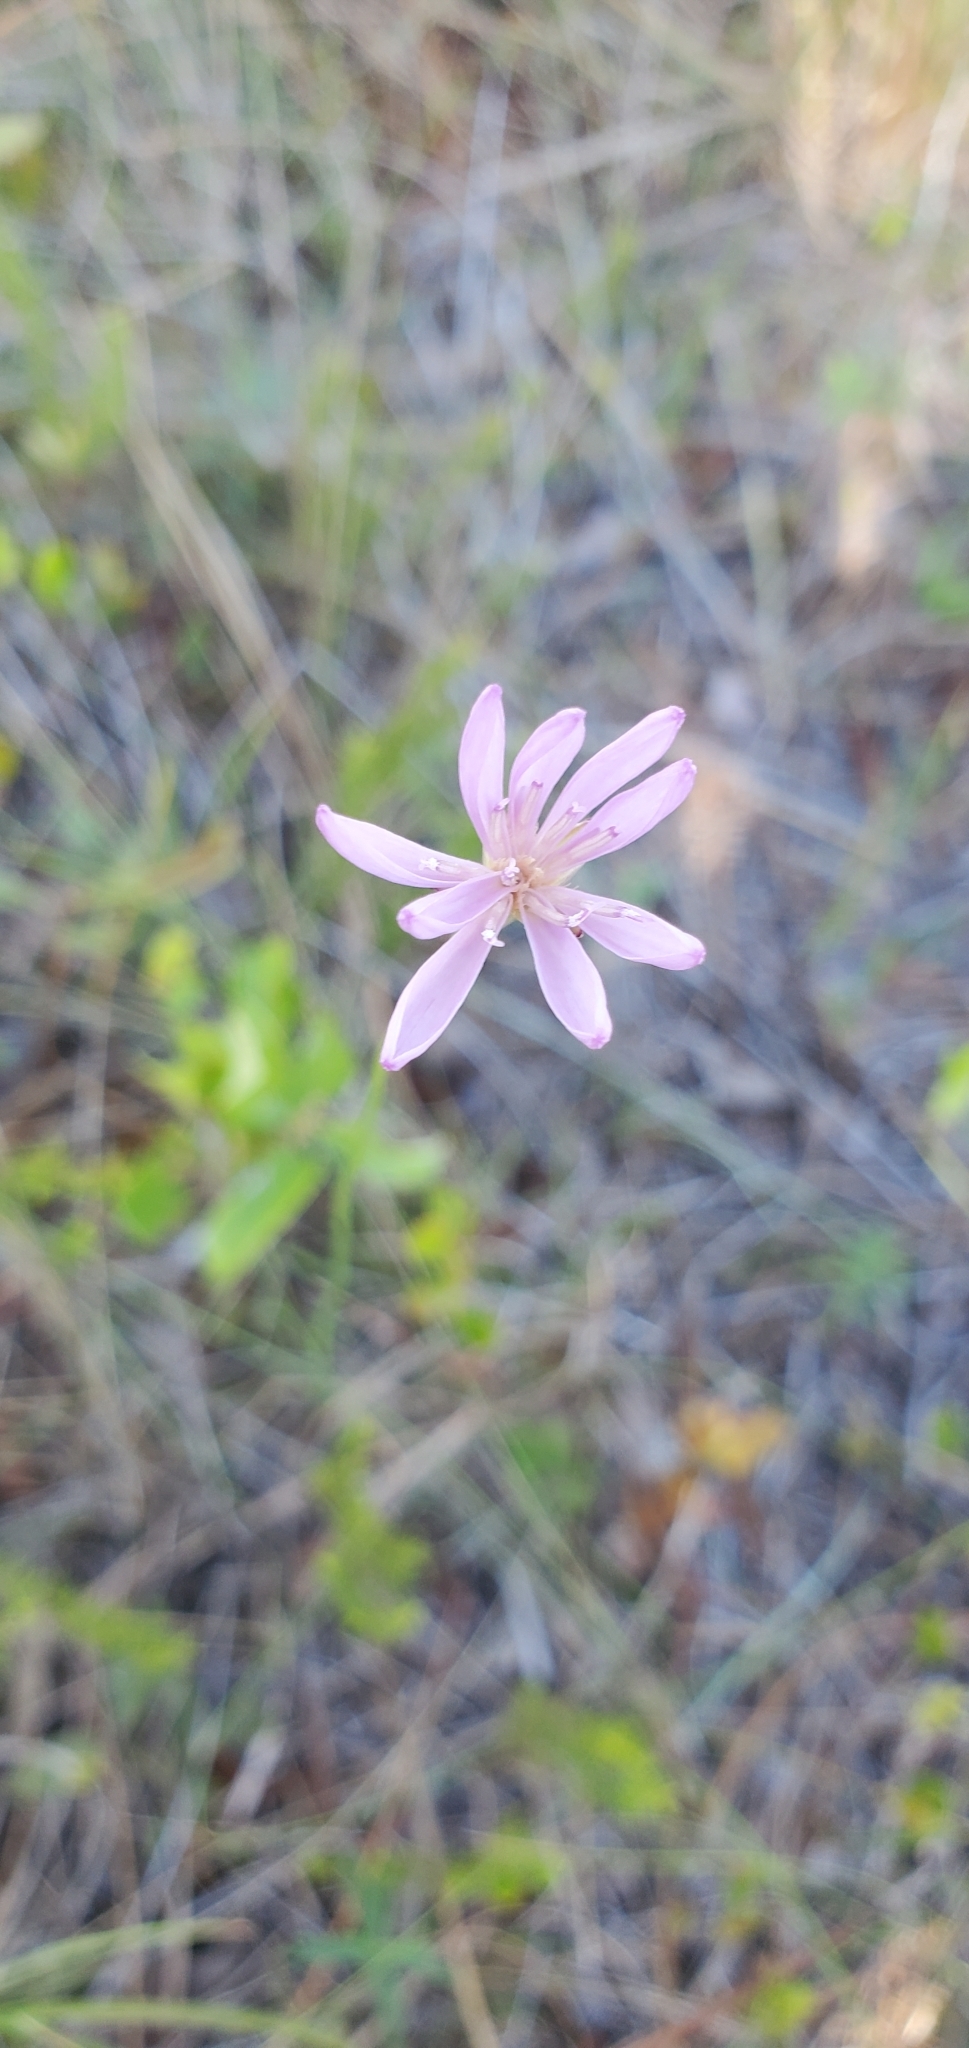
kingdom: Plantae
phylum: Tracheophyta
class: Magnoliopsida
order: Asterales
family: Asteraceae
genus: Lygodesmia
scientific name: Lygodesmia aphylla
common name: Rose-rush
